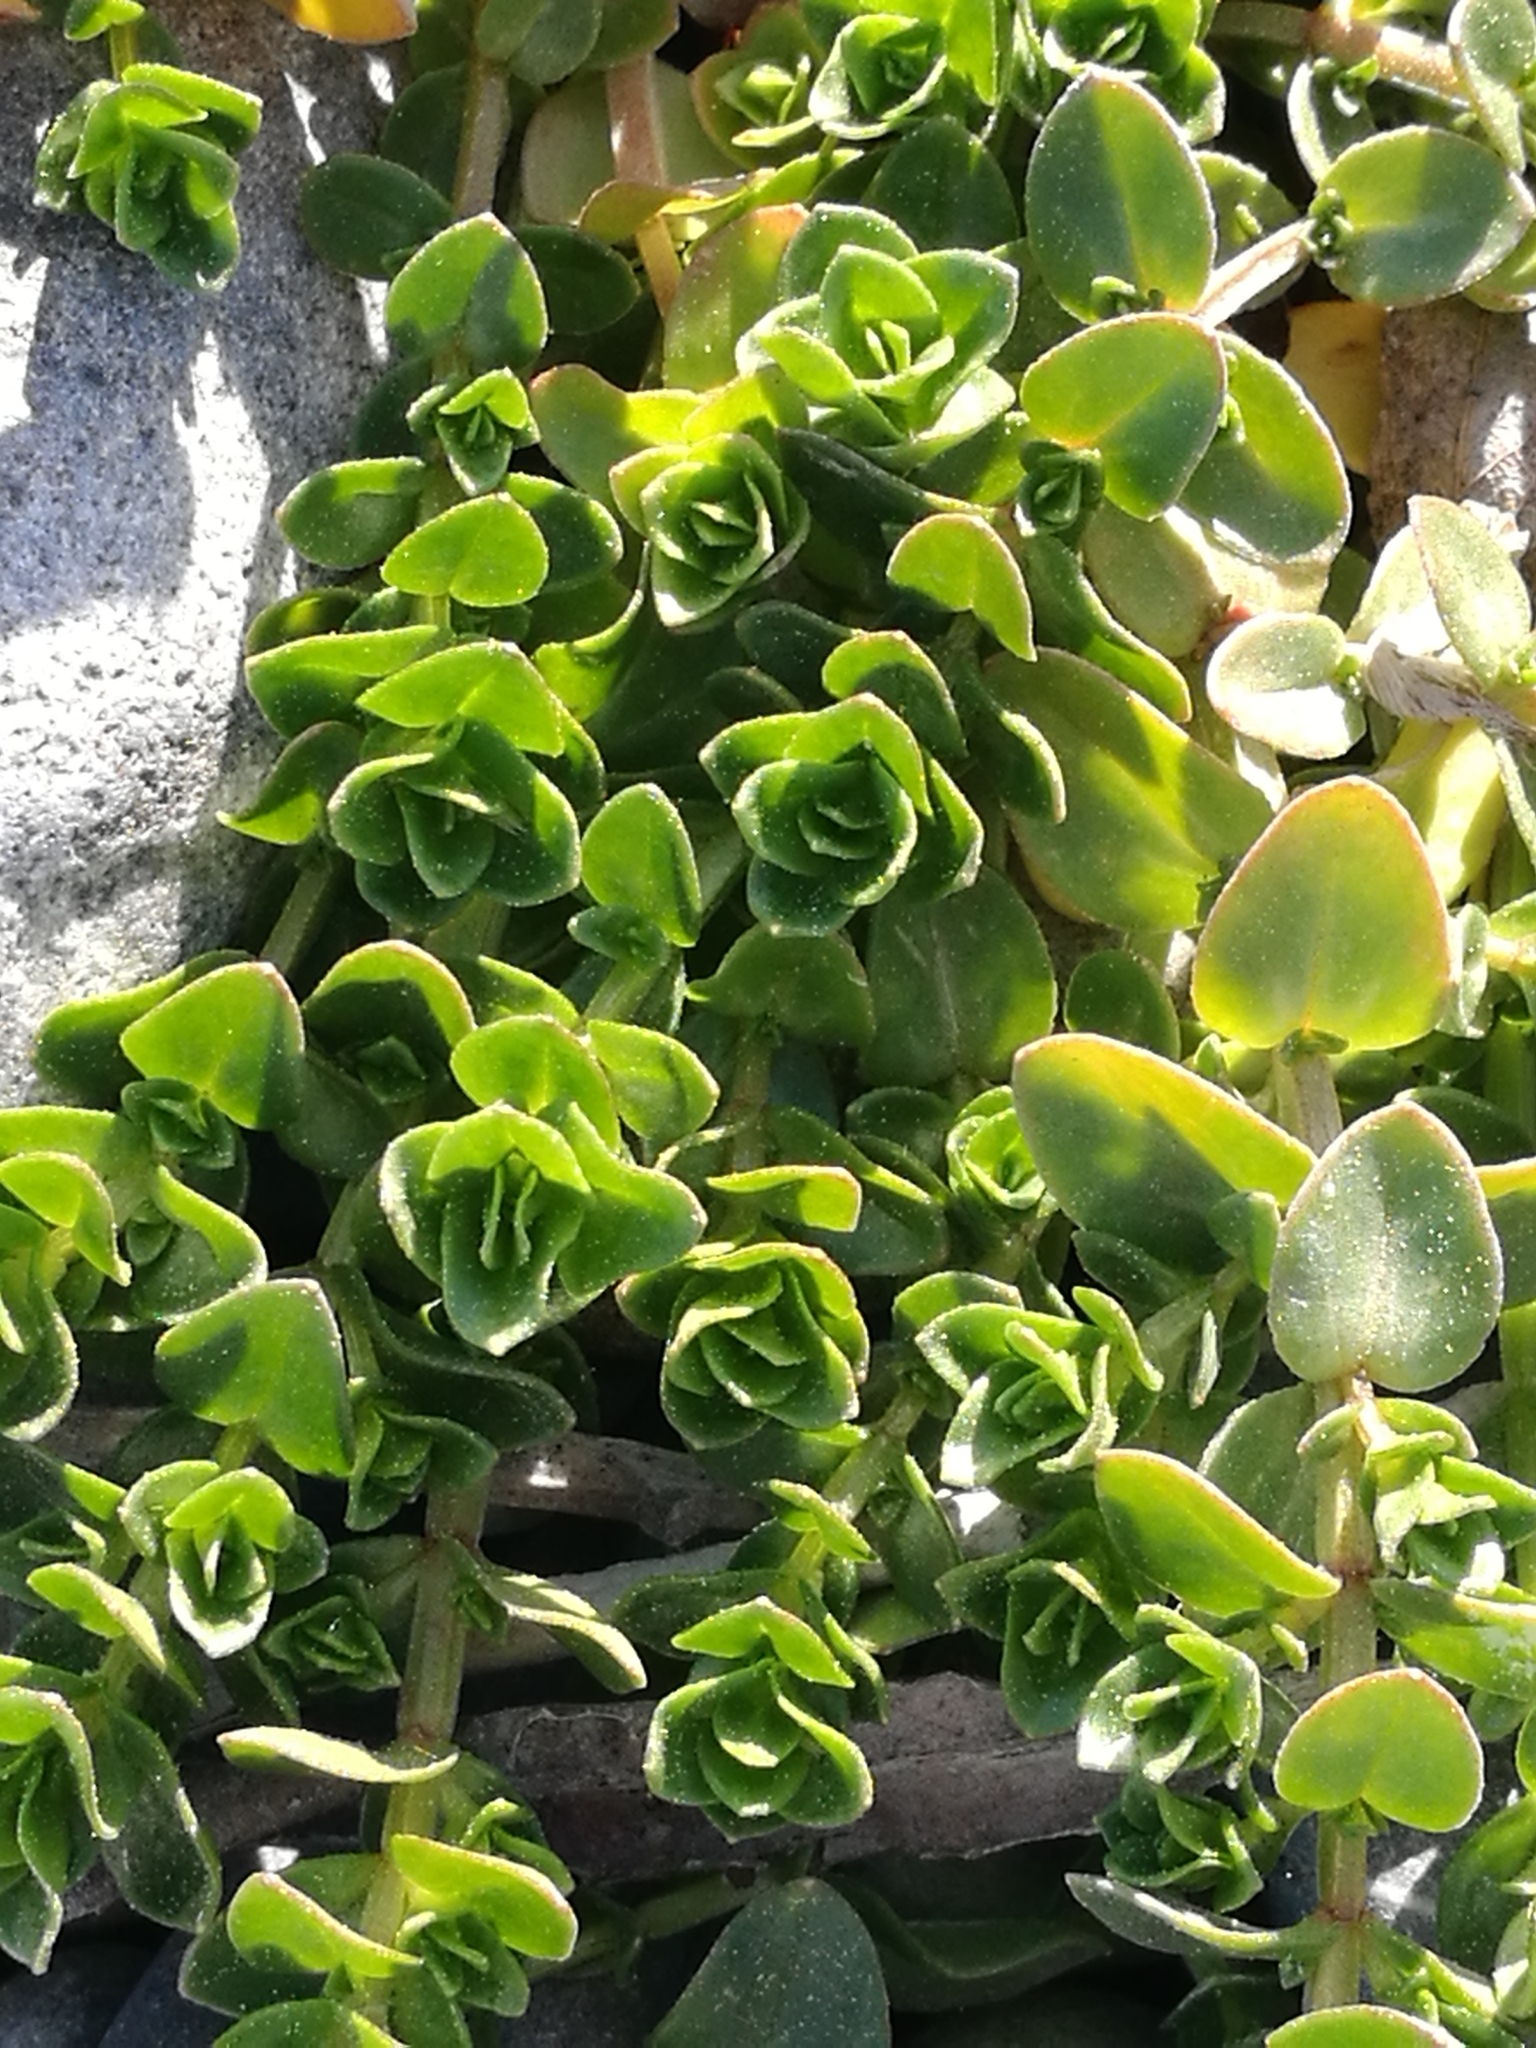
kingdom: Plantae
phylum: Tracheophyta
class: Magnoliopsida
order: Ericales
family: Primulaceae
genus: Lysimachia
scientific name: Lysimachia arvensis
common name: Scarlet pimpernel
